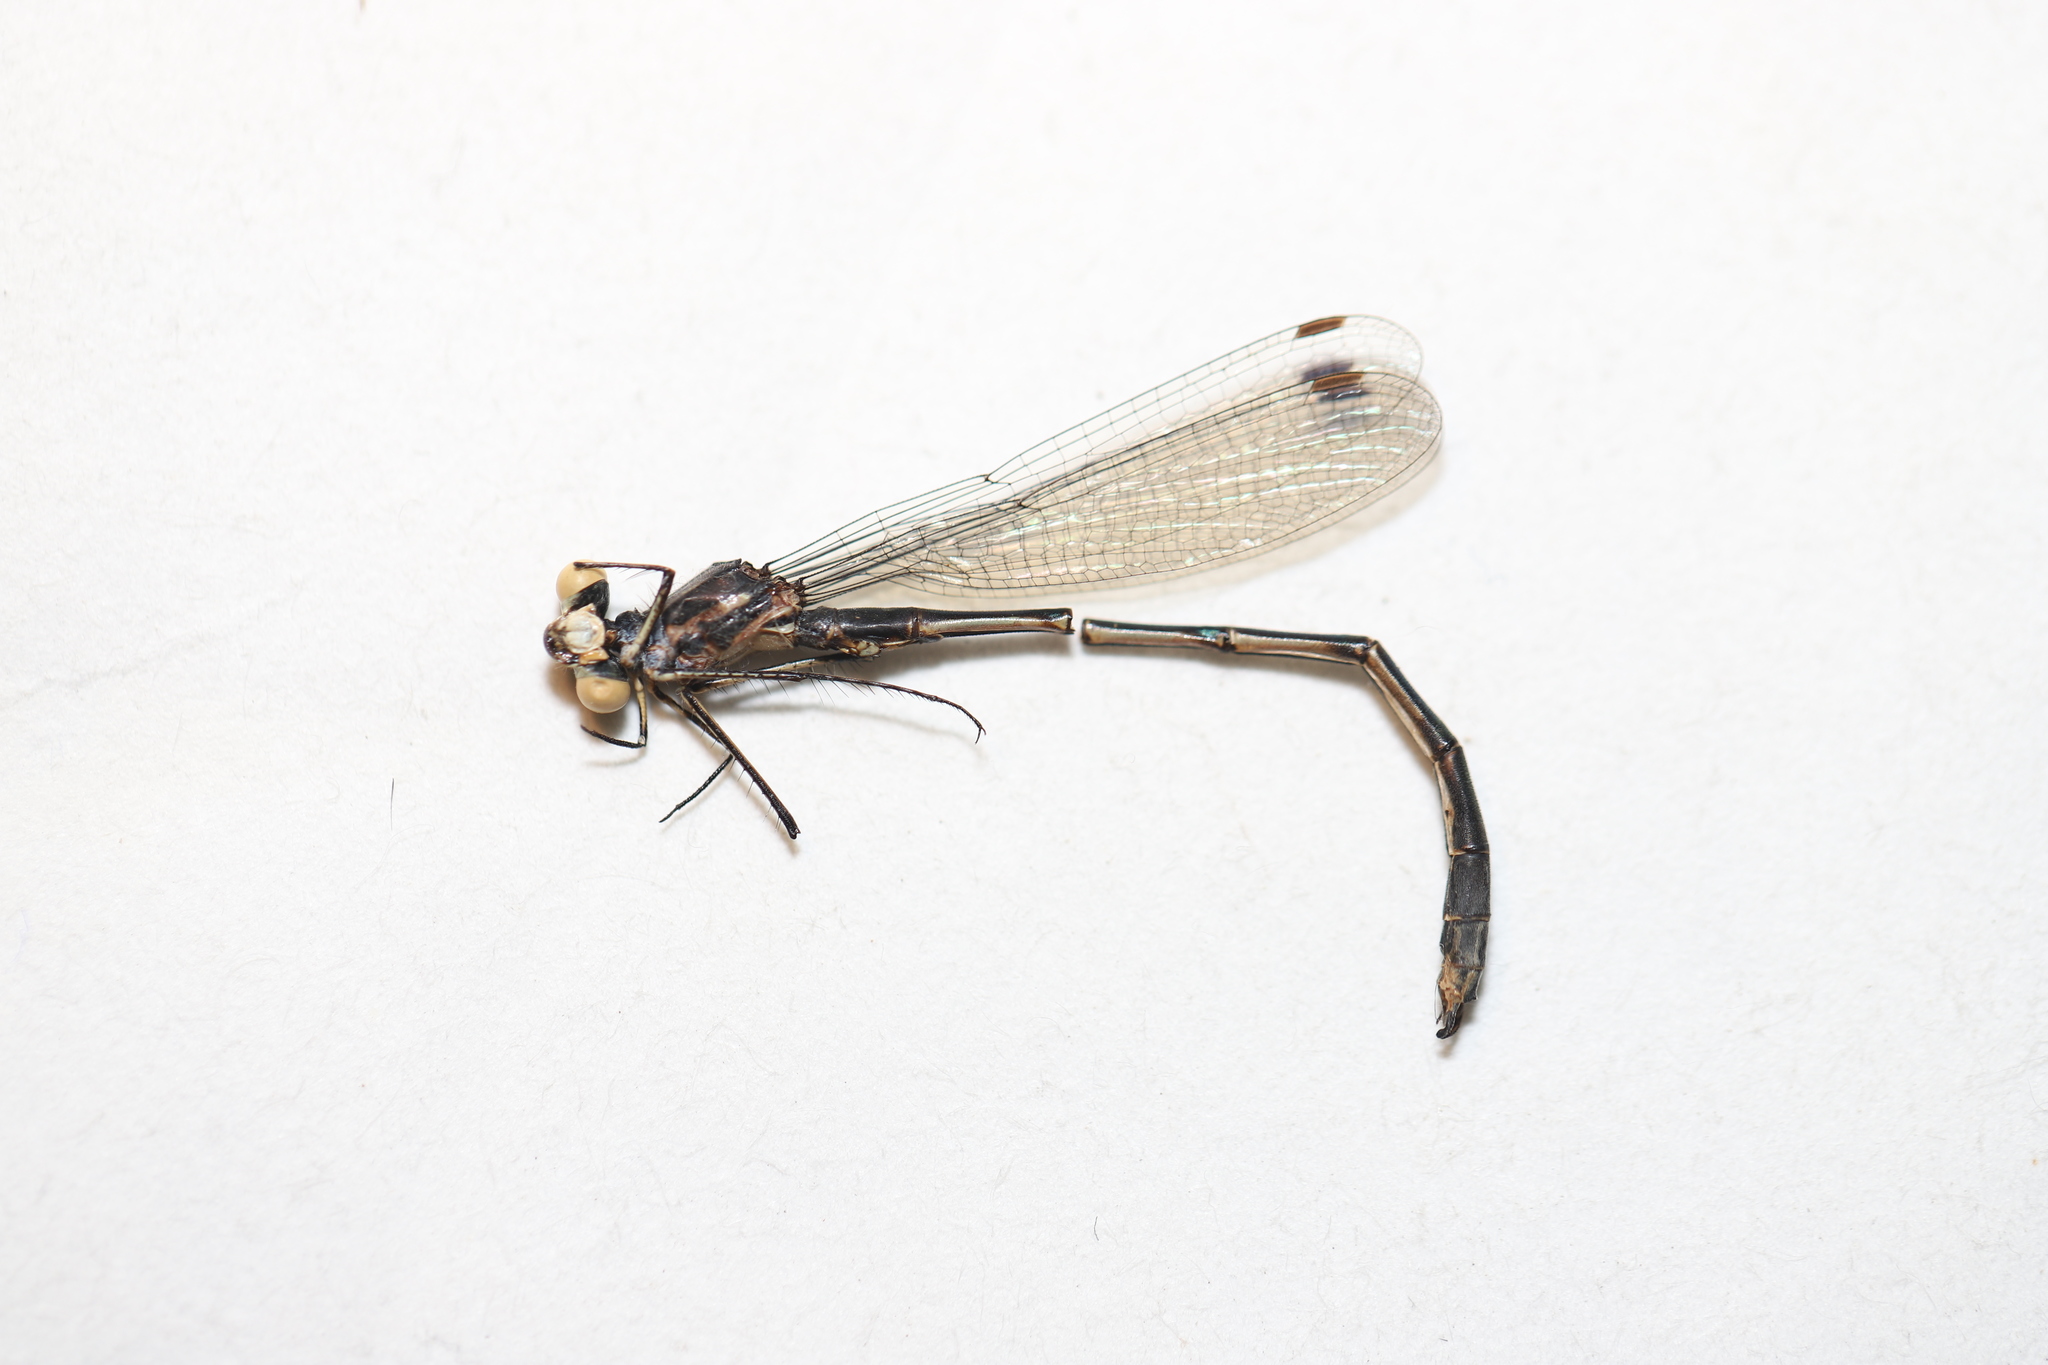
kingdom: Animalia
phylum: Arthropoda
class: Insecta
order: Odonata
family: Lestidae
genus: Lestes
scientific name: Lestes disjunctus
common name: Northern spreadwing
